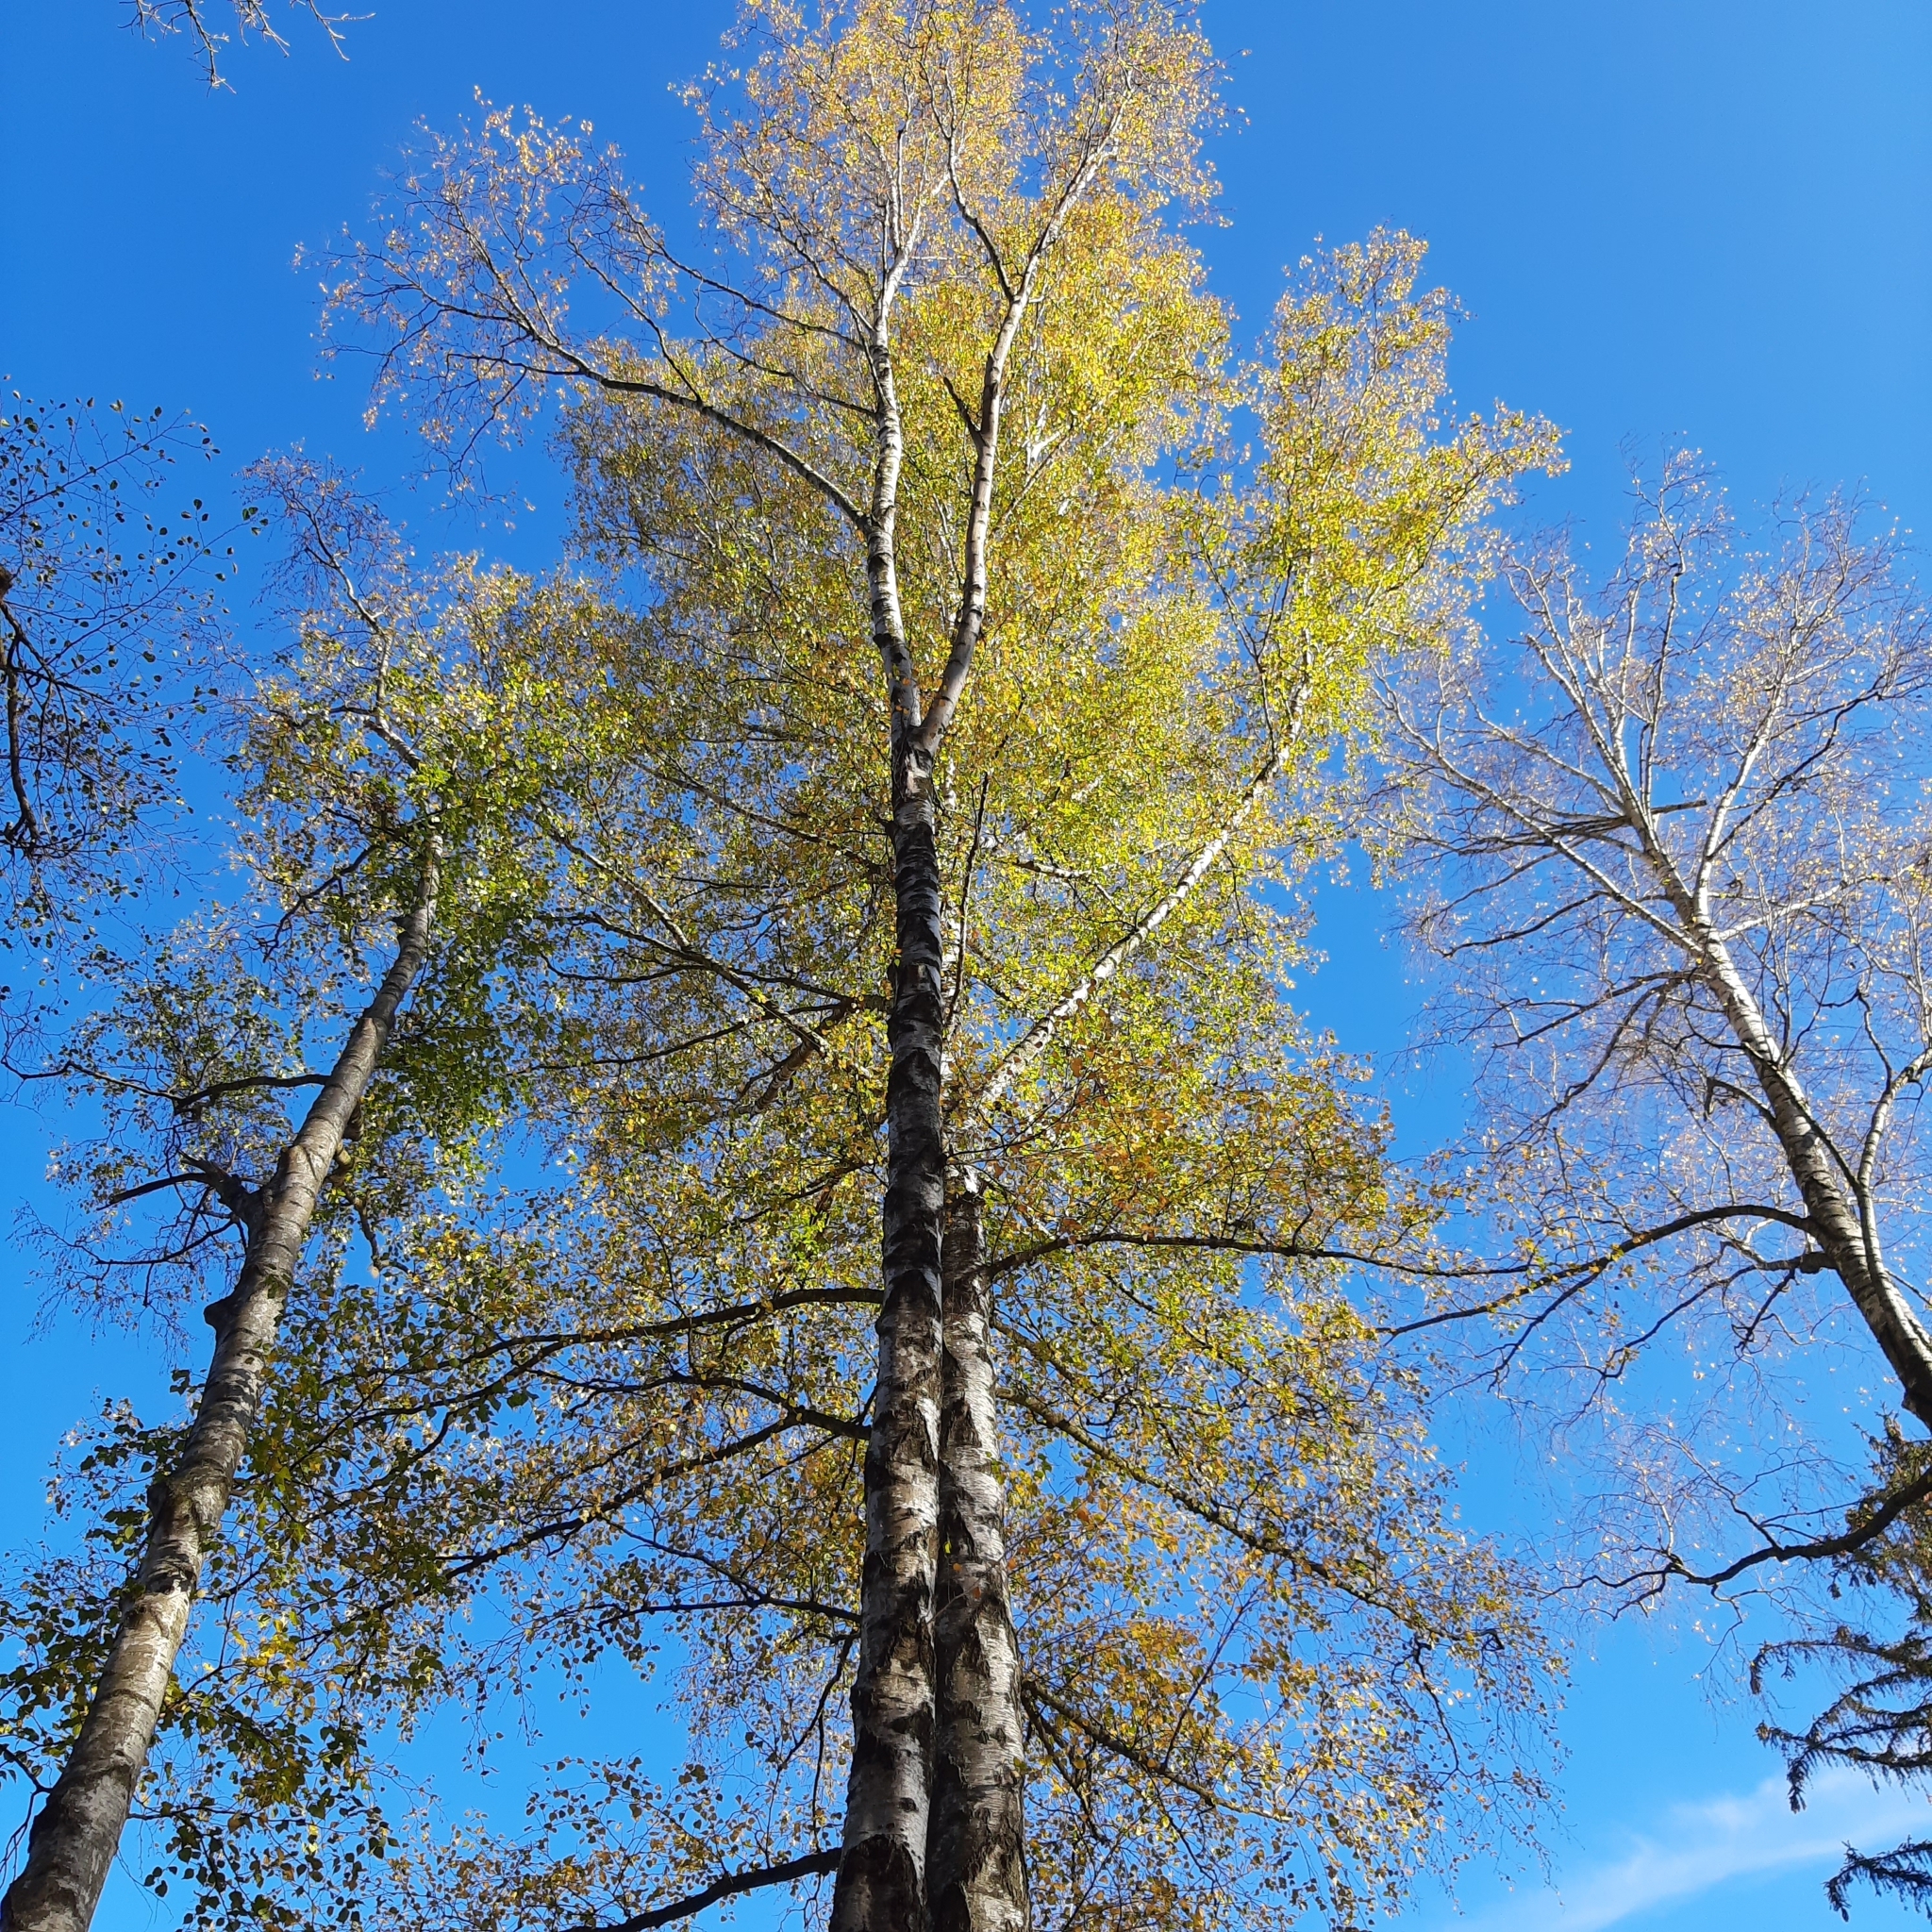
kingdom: Plantae
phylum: Tracheophyta
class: Magnoliopsida
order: Fagales
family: Betulaceae
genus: Betula
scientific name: Betula pendula
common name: Silver birch
